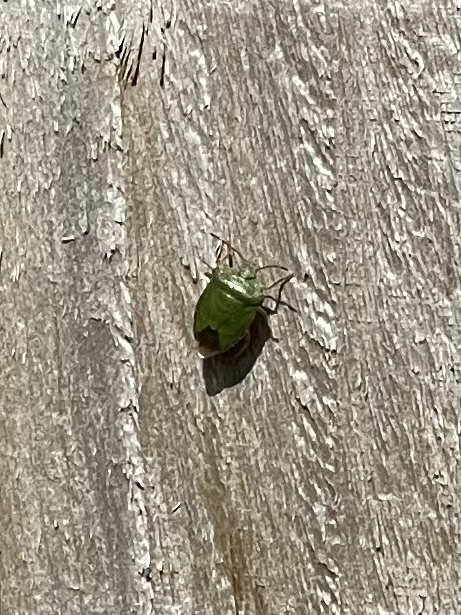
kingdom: Animalia
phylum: Arthropoda
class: Insecta
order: Hemiptera
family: Pentatomidae
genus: Palomena
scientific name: Palomena prasina
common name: Green shieldbug
